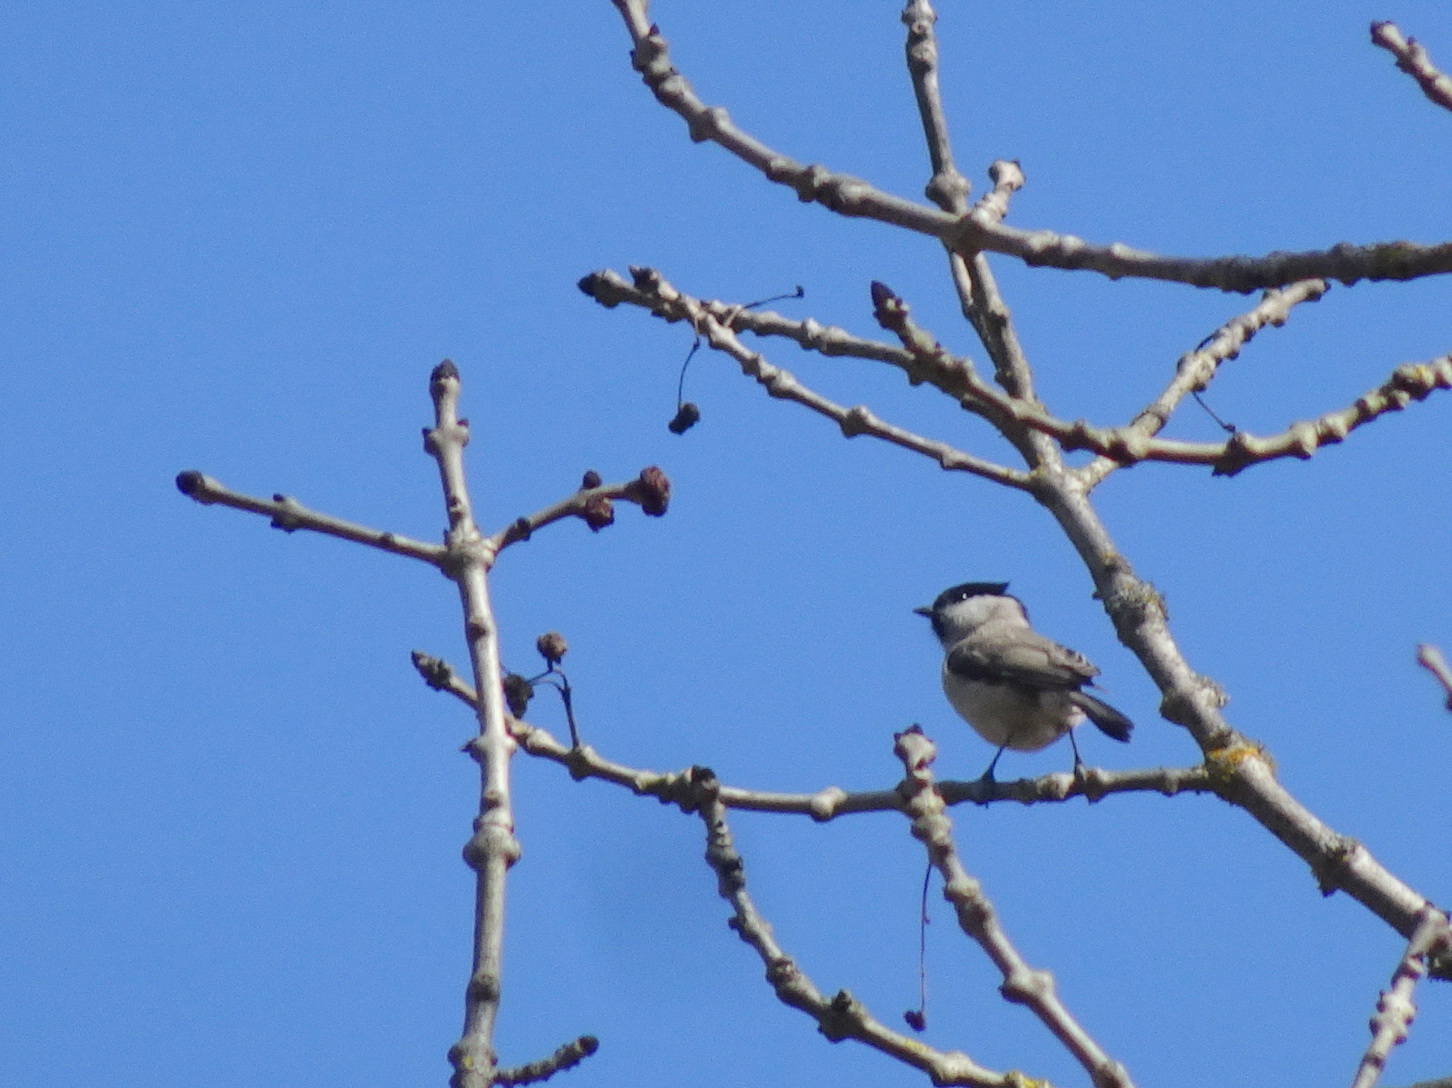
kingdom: Animalia
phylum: Chordata
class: Aves
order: Passeriformes
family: Paridae
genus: Poecile
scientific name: Poecile palustris
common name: Marsh tit
